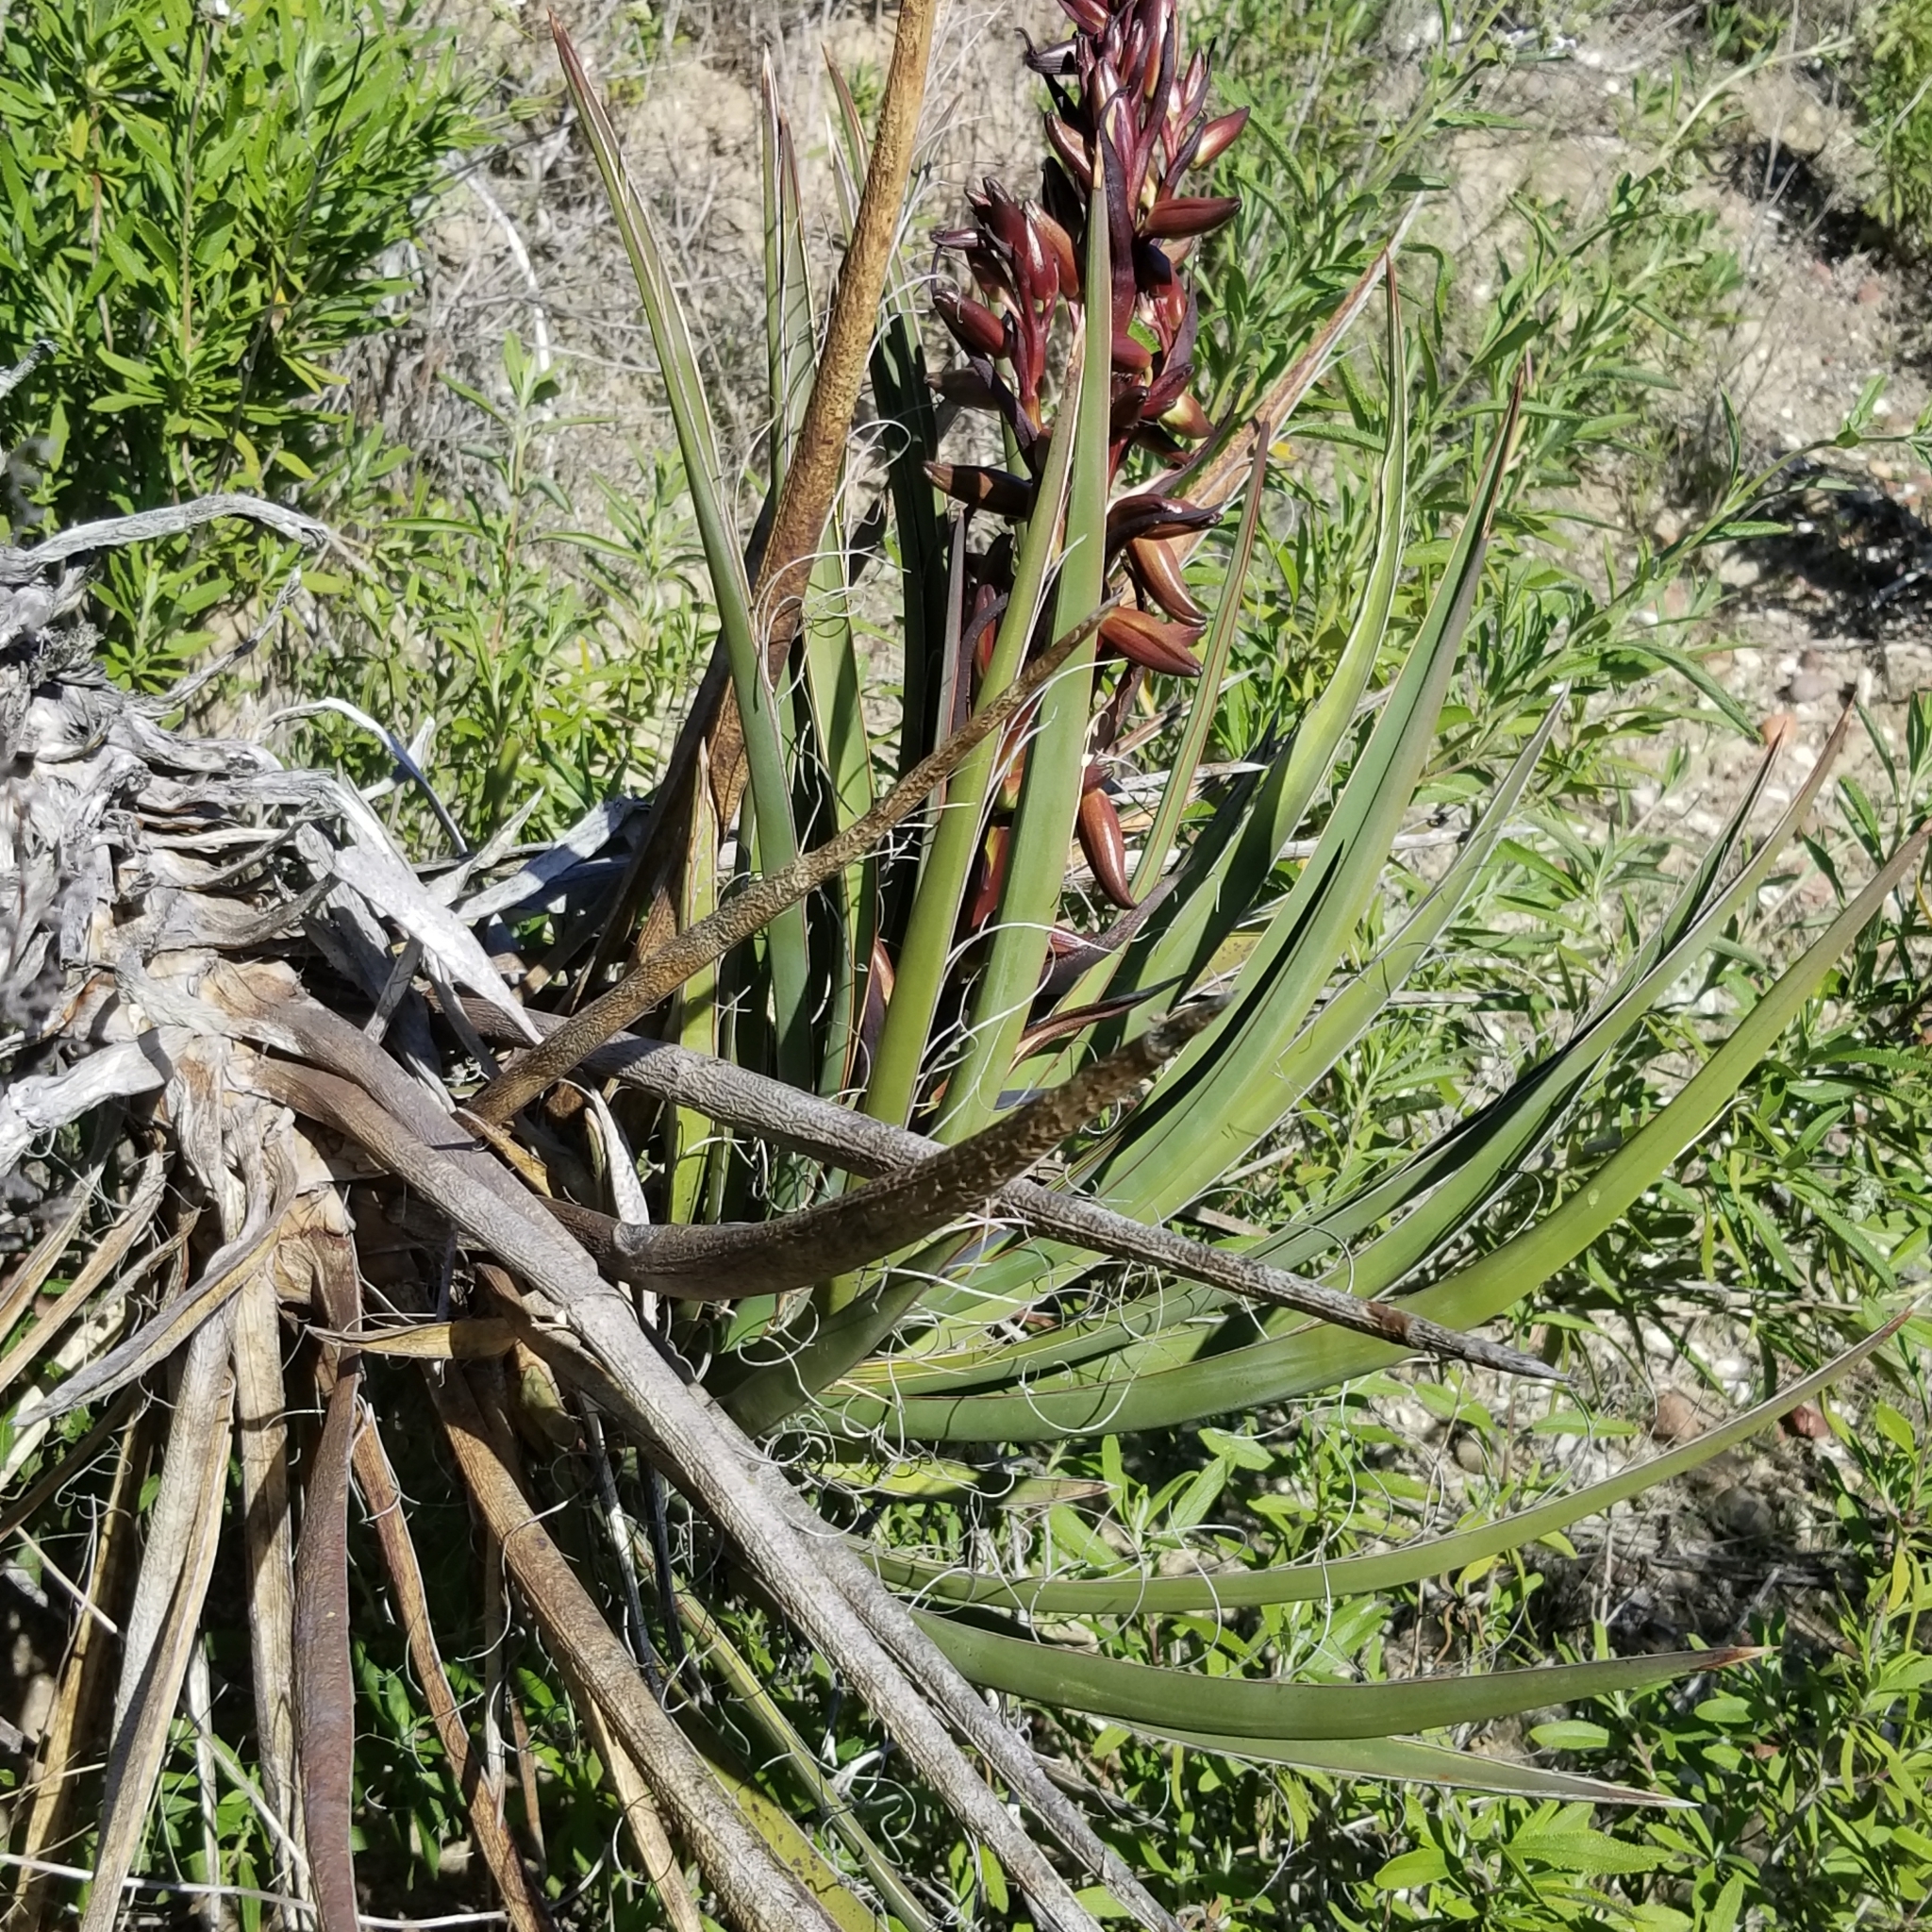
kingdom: Plantae
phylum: Tracheophyta
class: Liliopsida
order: Asparagales
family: Asparagaceae
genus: Yucca
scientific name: Yucca schidigera
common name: Mojave yucca
